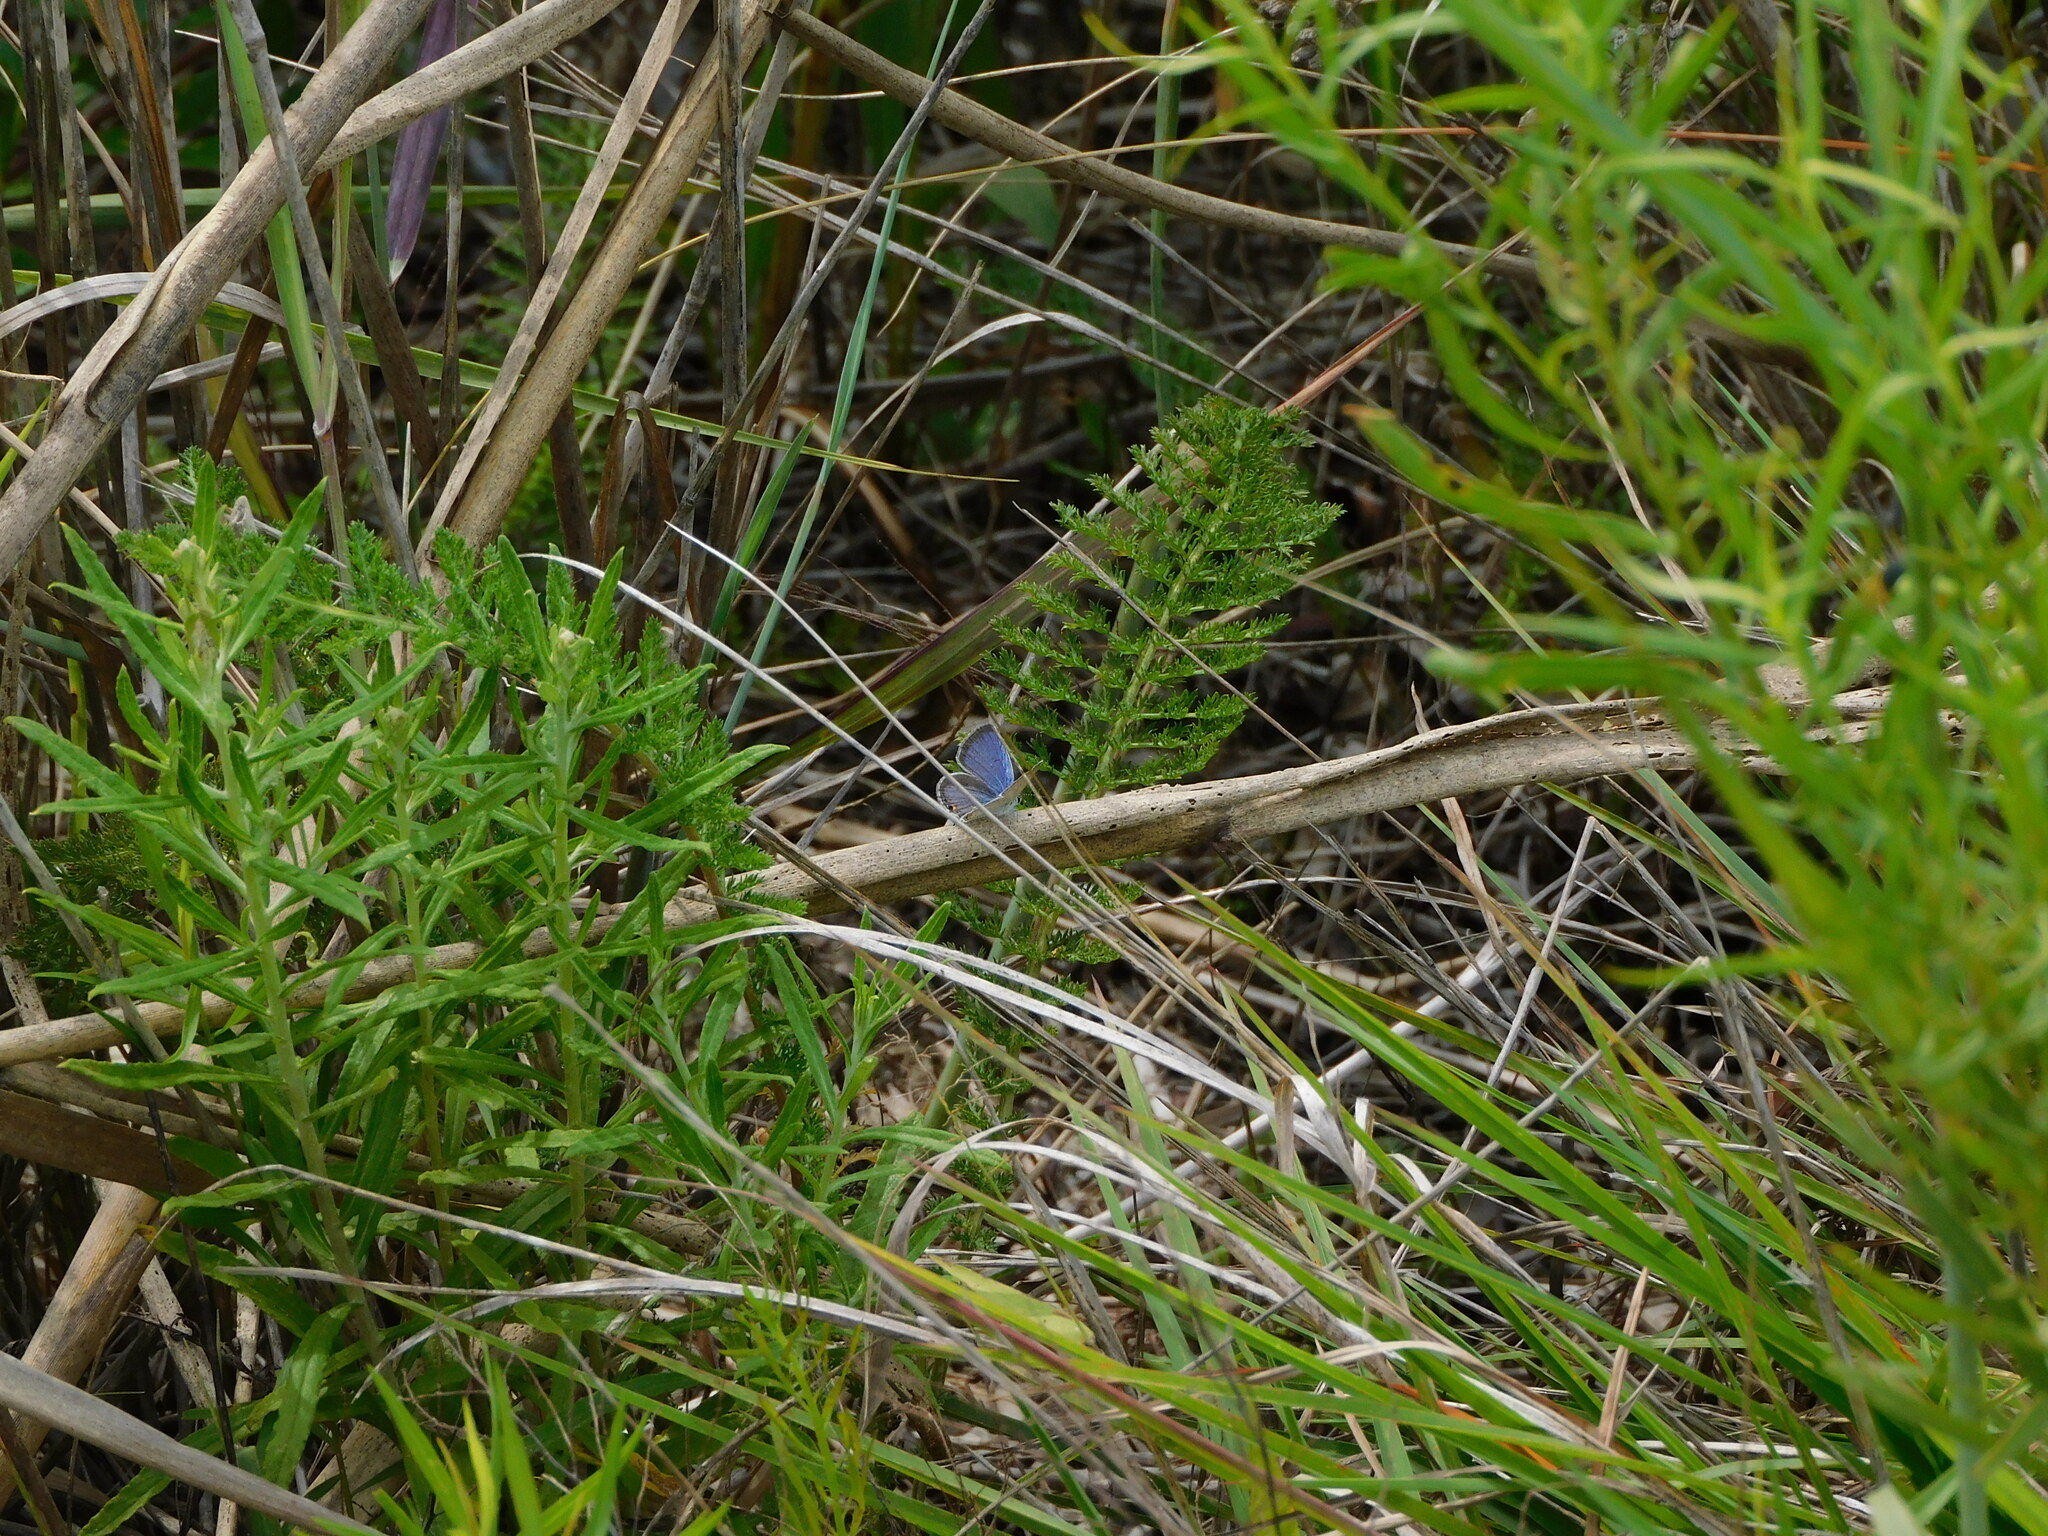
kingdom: Animalia
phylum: Arthropoda
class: Insecta
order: Lepidoptera
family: Lycaenidae
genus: Elkalyce
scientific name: Elkalyce comyntas
